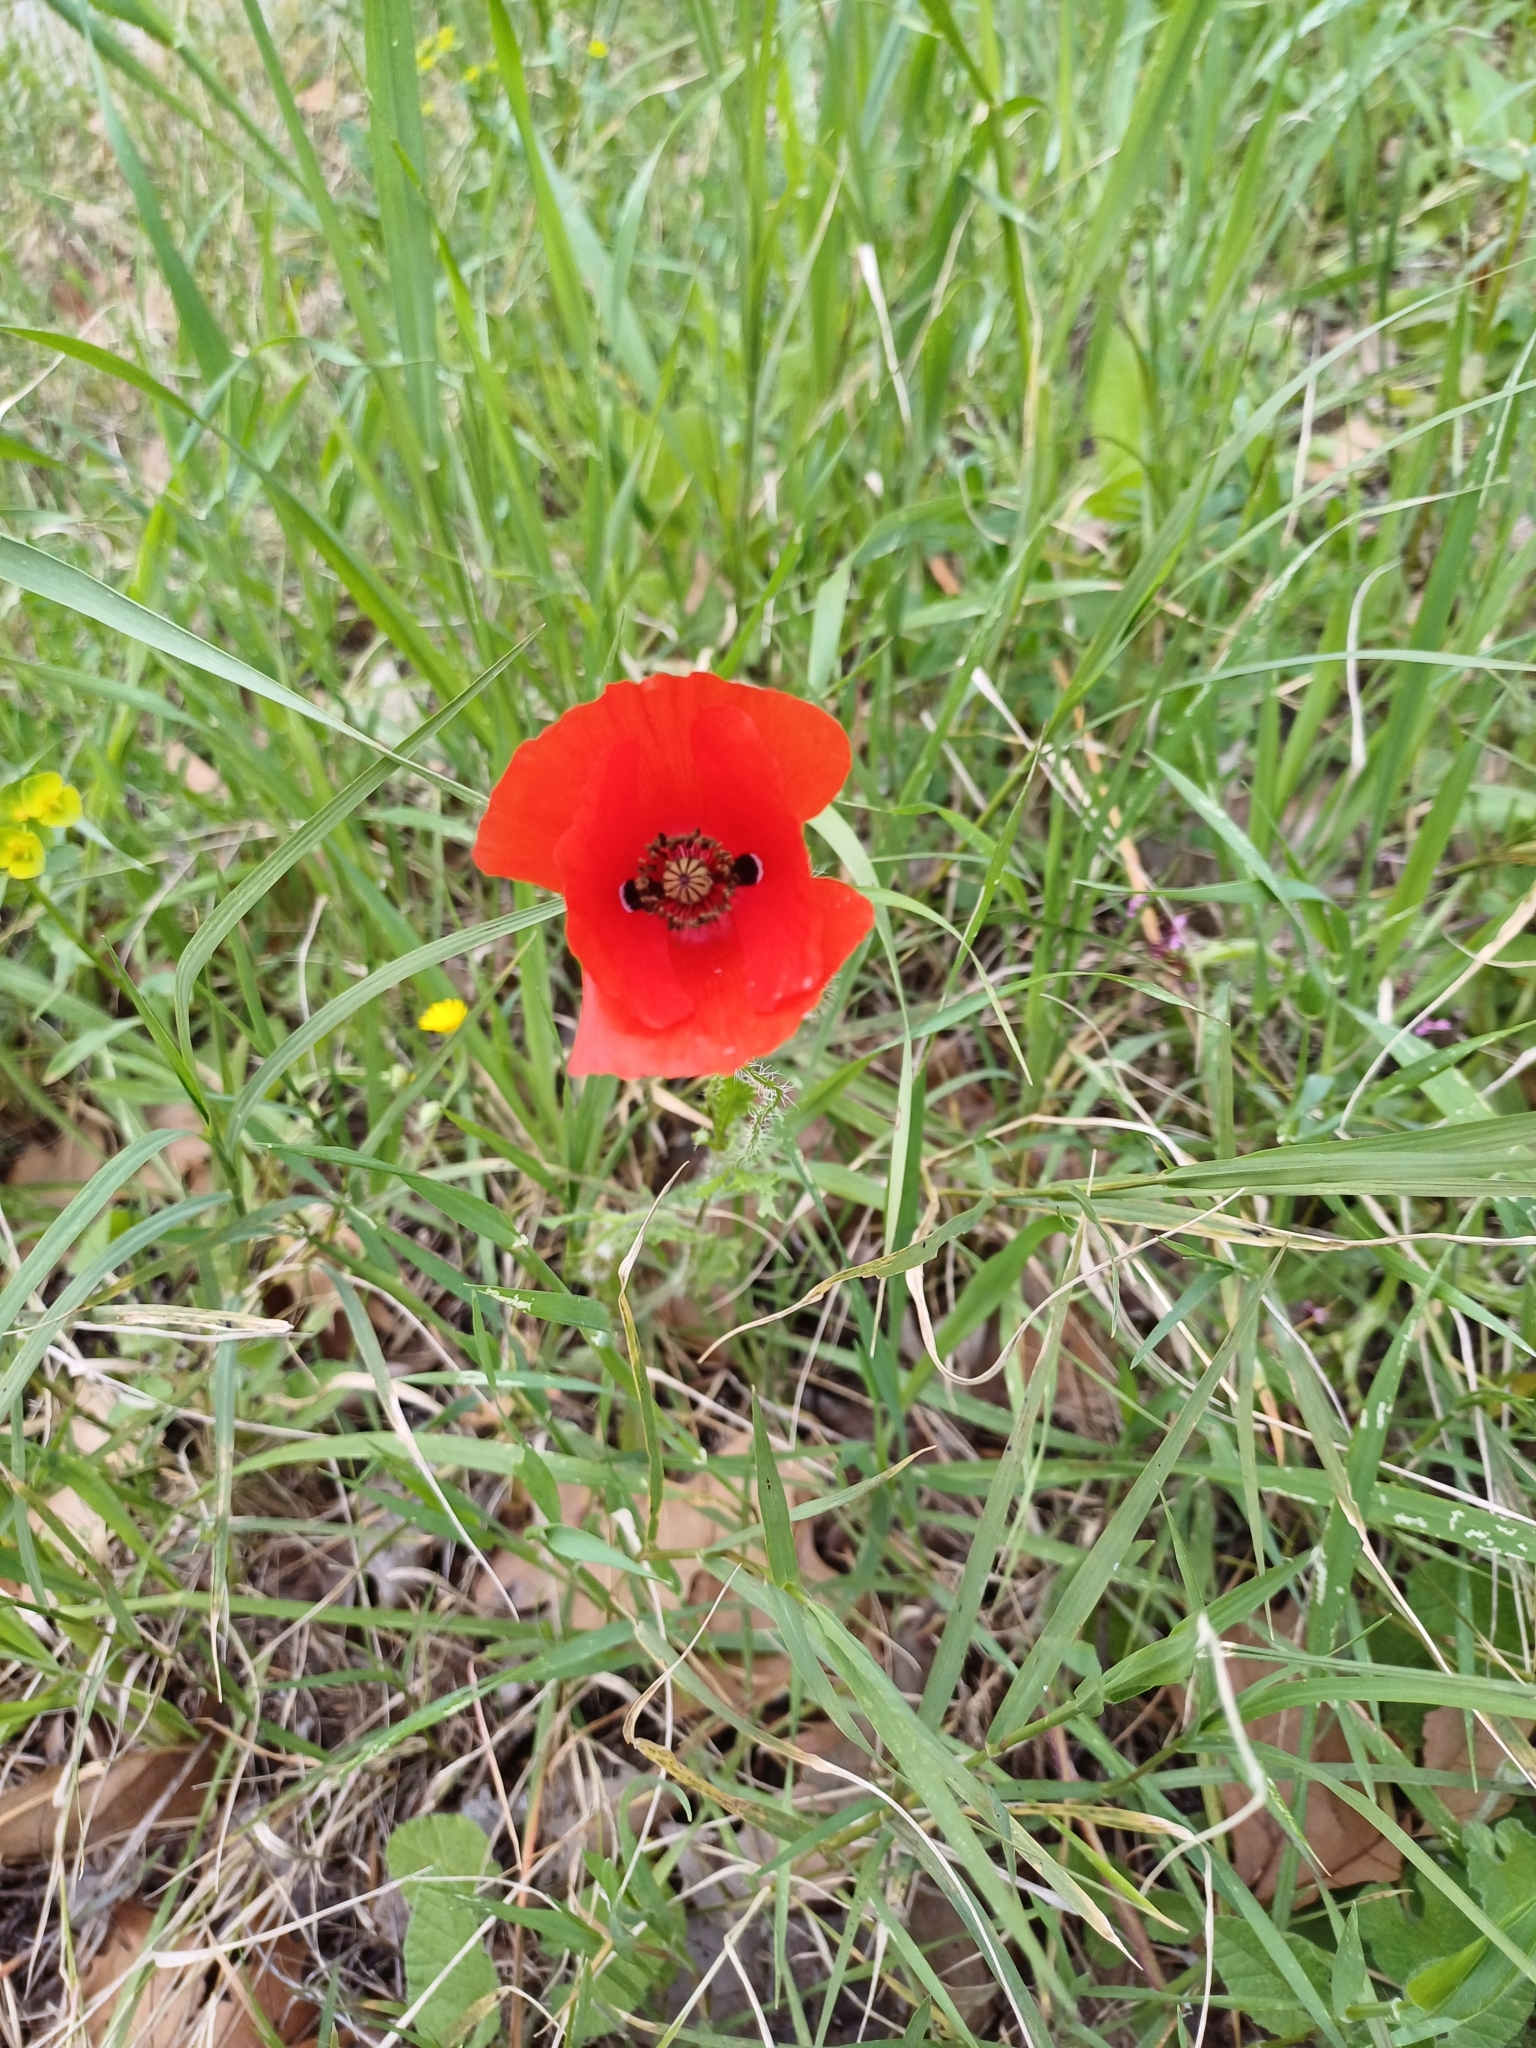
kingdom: Plantae
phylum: Tracheophyta
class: Magnoliopsida
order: Ranunculales
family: Papaveraceae
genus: Papaver
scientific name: Papaver rhoeas
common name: Corn poppy
